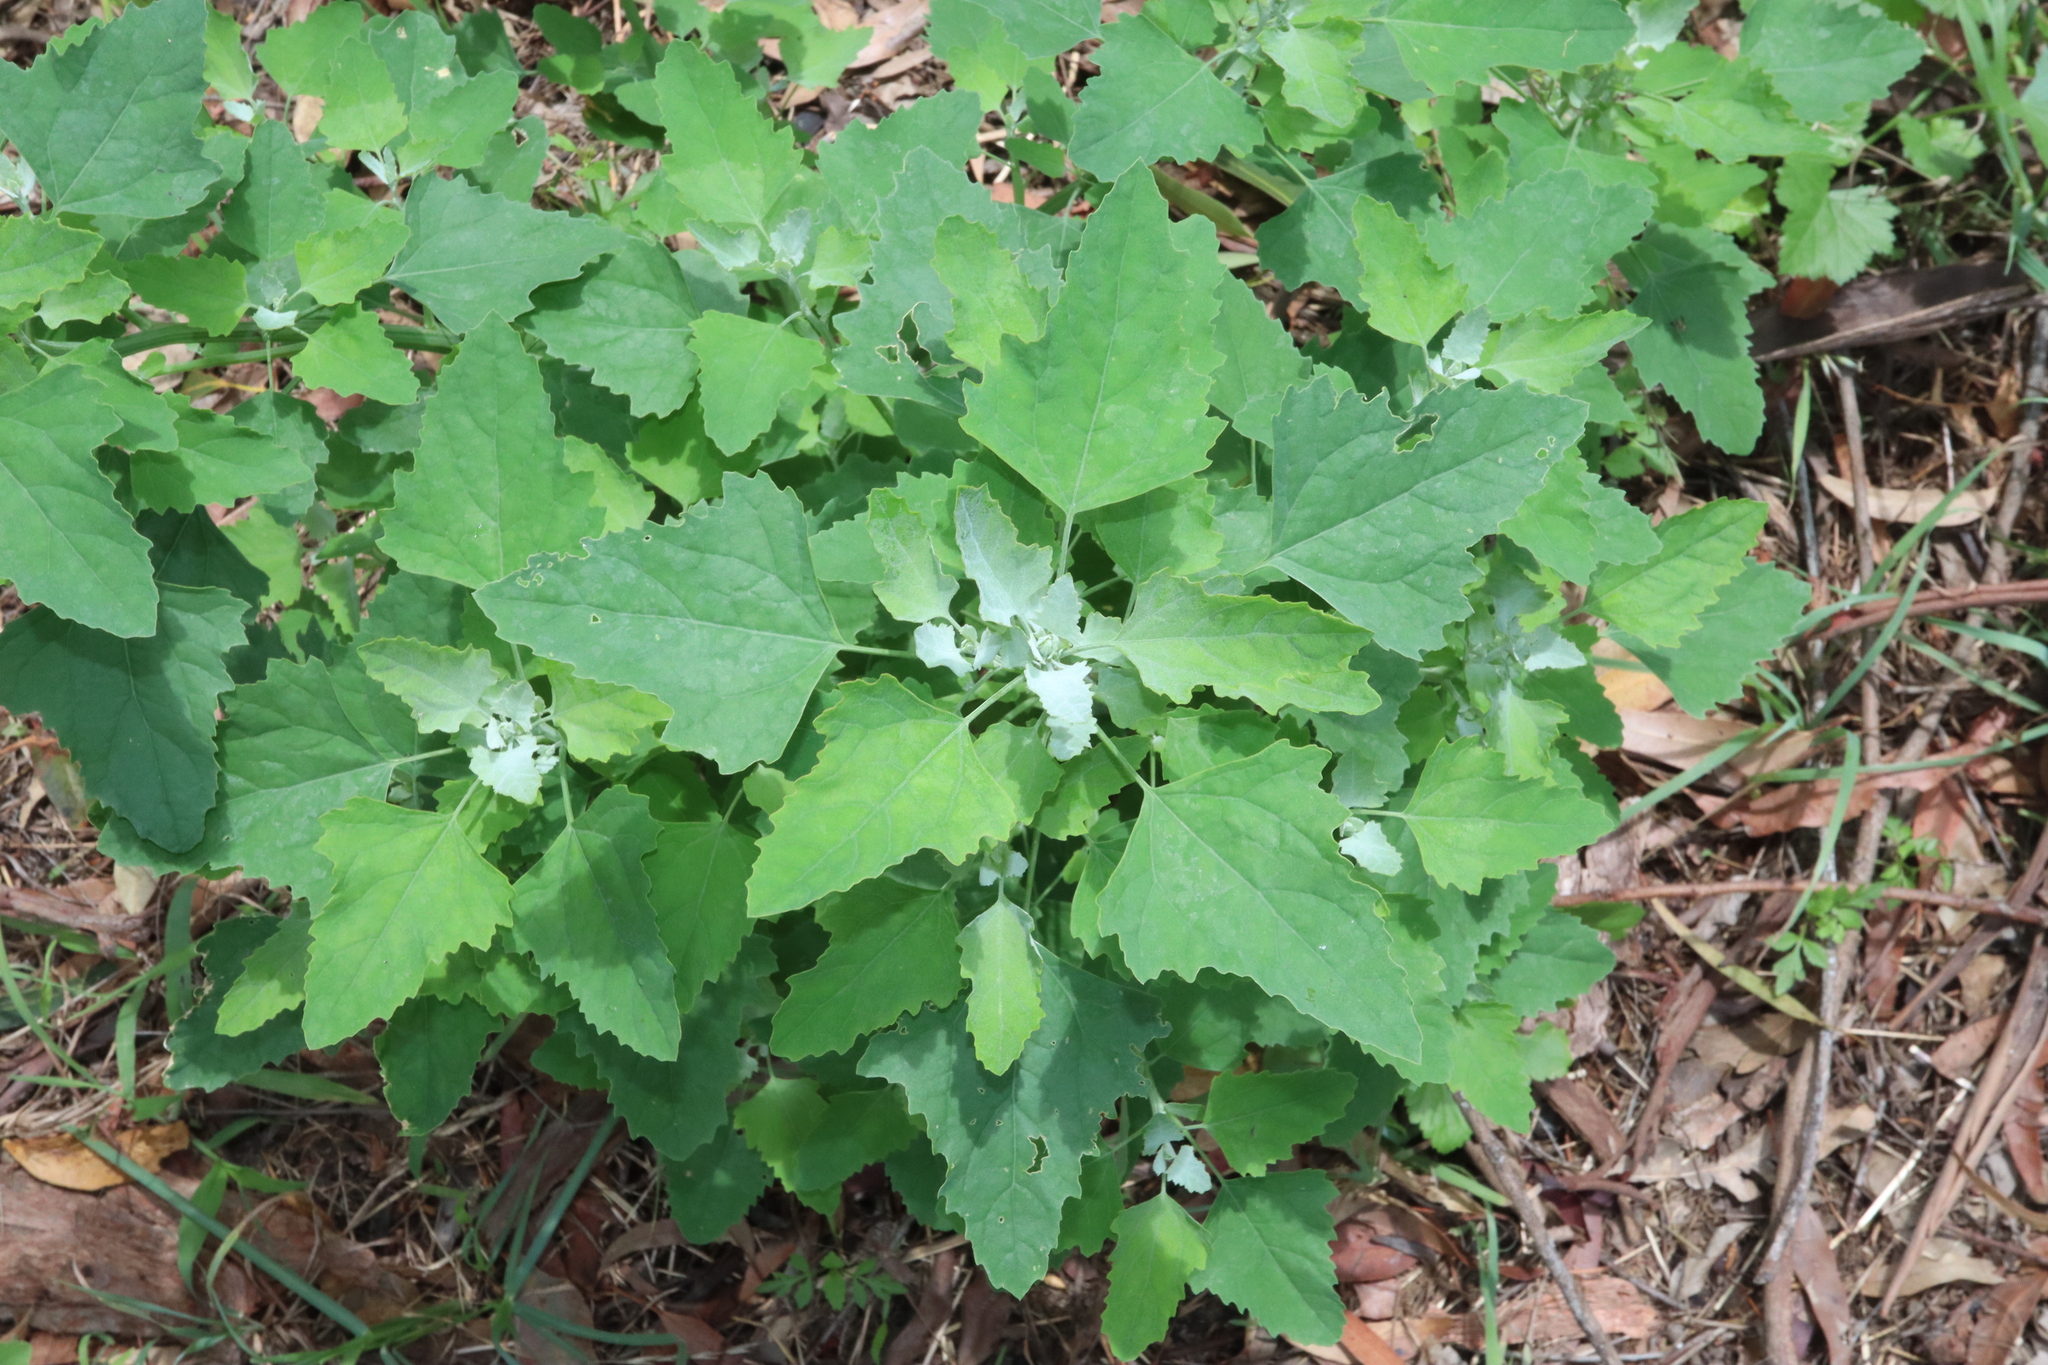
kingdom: Plantae
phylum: Tracheophyta
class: Magnoliopsida
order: Caryophyllales
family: Amaranthaceae
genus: Chenopodium
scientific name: Chenopodium album
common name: Fat-hen
